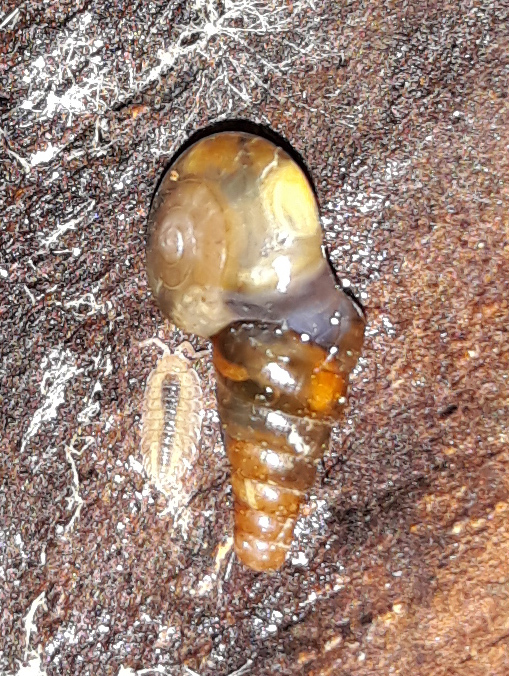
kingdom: Animalia
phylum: Mollusca
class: Gastropoda
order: Stylommatophora
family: Clausiliidae
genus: Cochlodina
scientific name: Cochlodina laminata
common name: Plaited door snail
